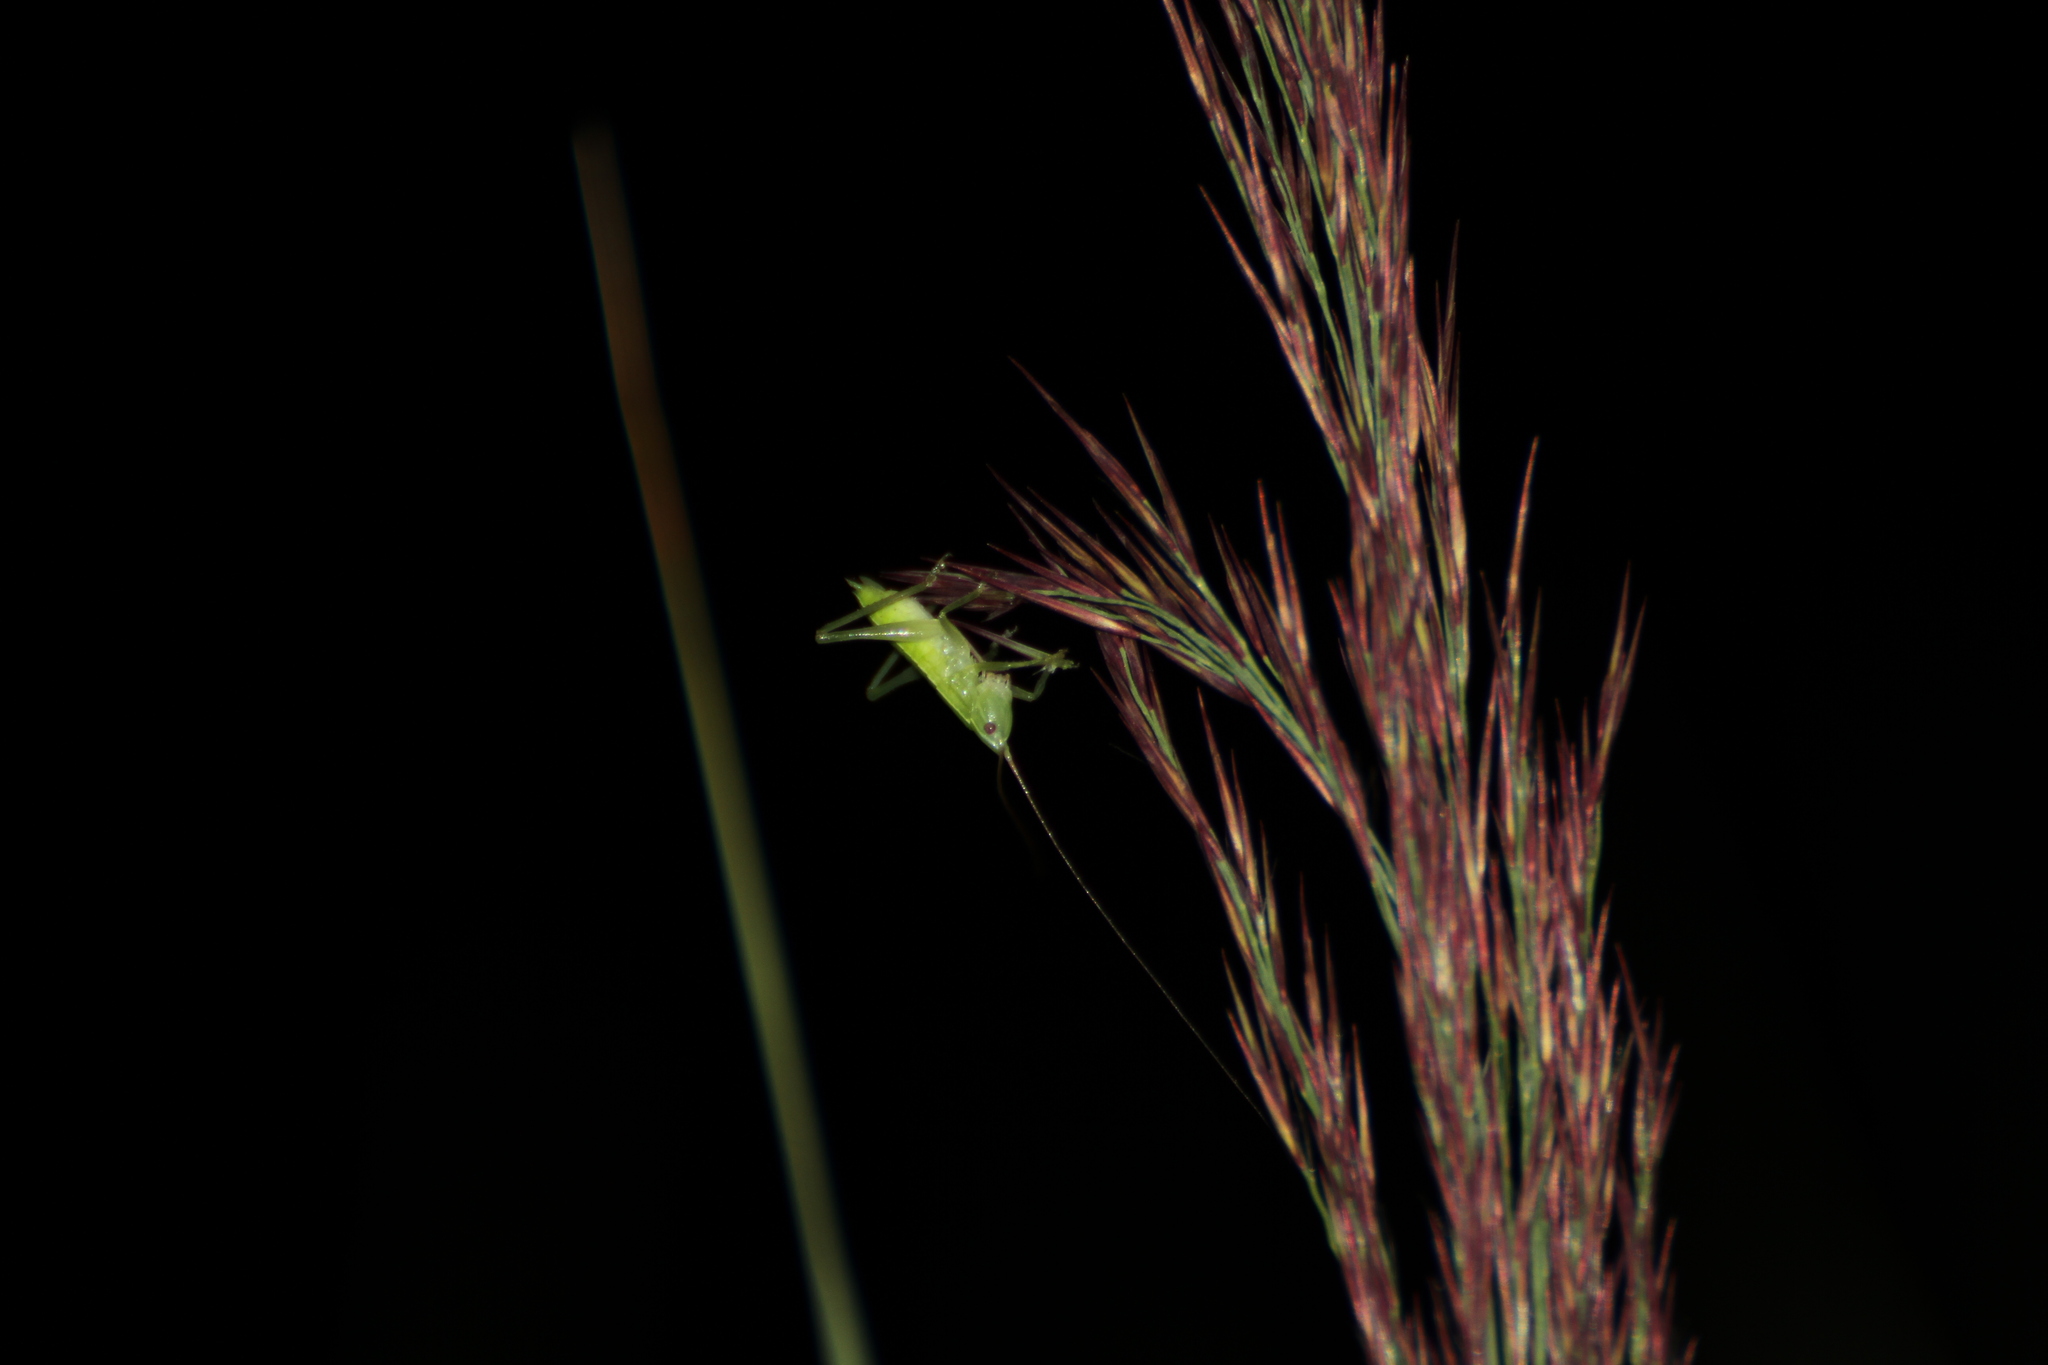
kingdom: Animalia
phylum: Arthropoda
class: Insecta
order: Orthoptera
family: Tettigoniidae
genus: Ruspolia
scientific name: Ruspolia nitidula
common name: Large conehead
